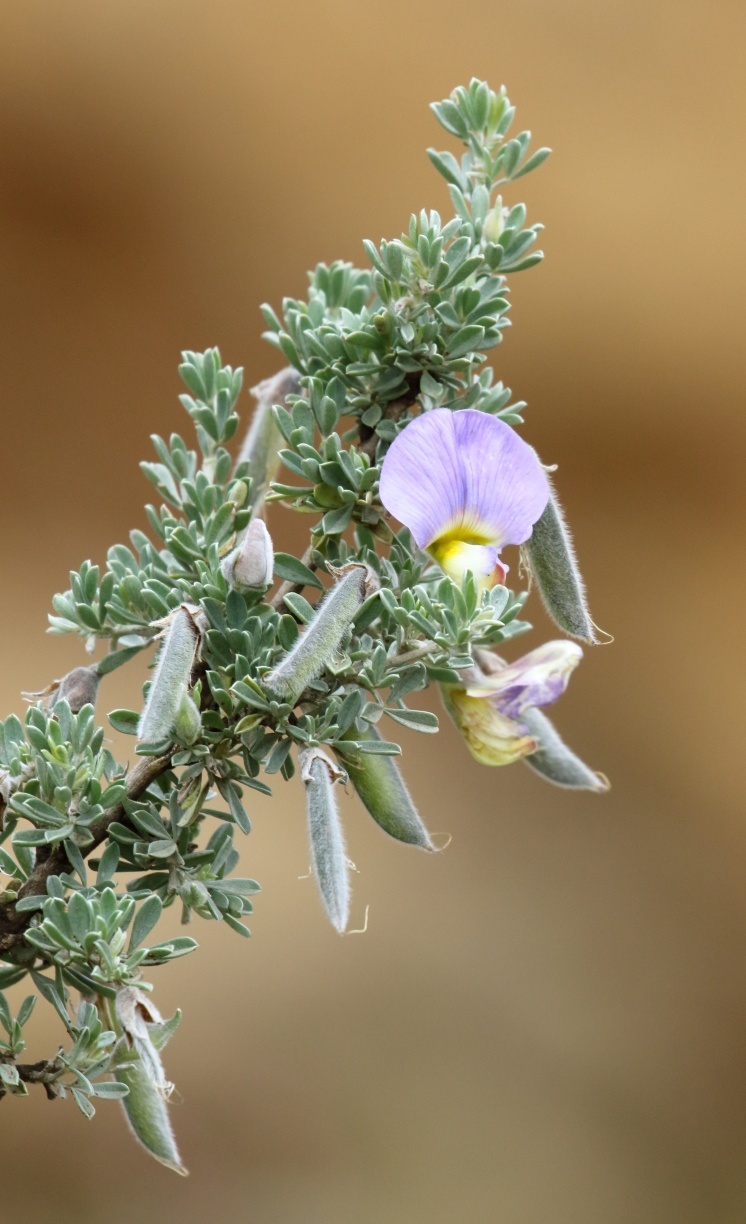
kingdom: Plantae
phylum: Tracheophyta
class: Magnoliopsida
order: Fabales
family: Fabaceae
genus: Lotononis
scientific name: Lotononis sericophylla
